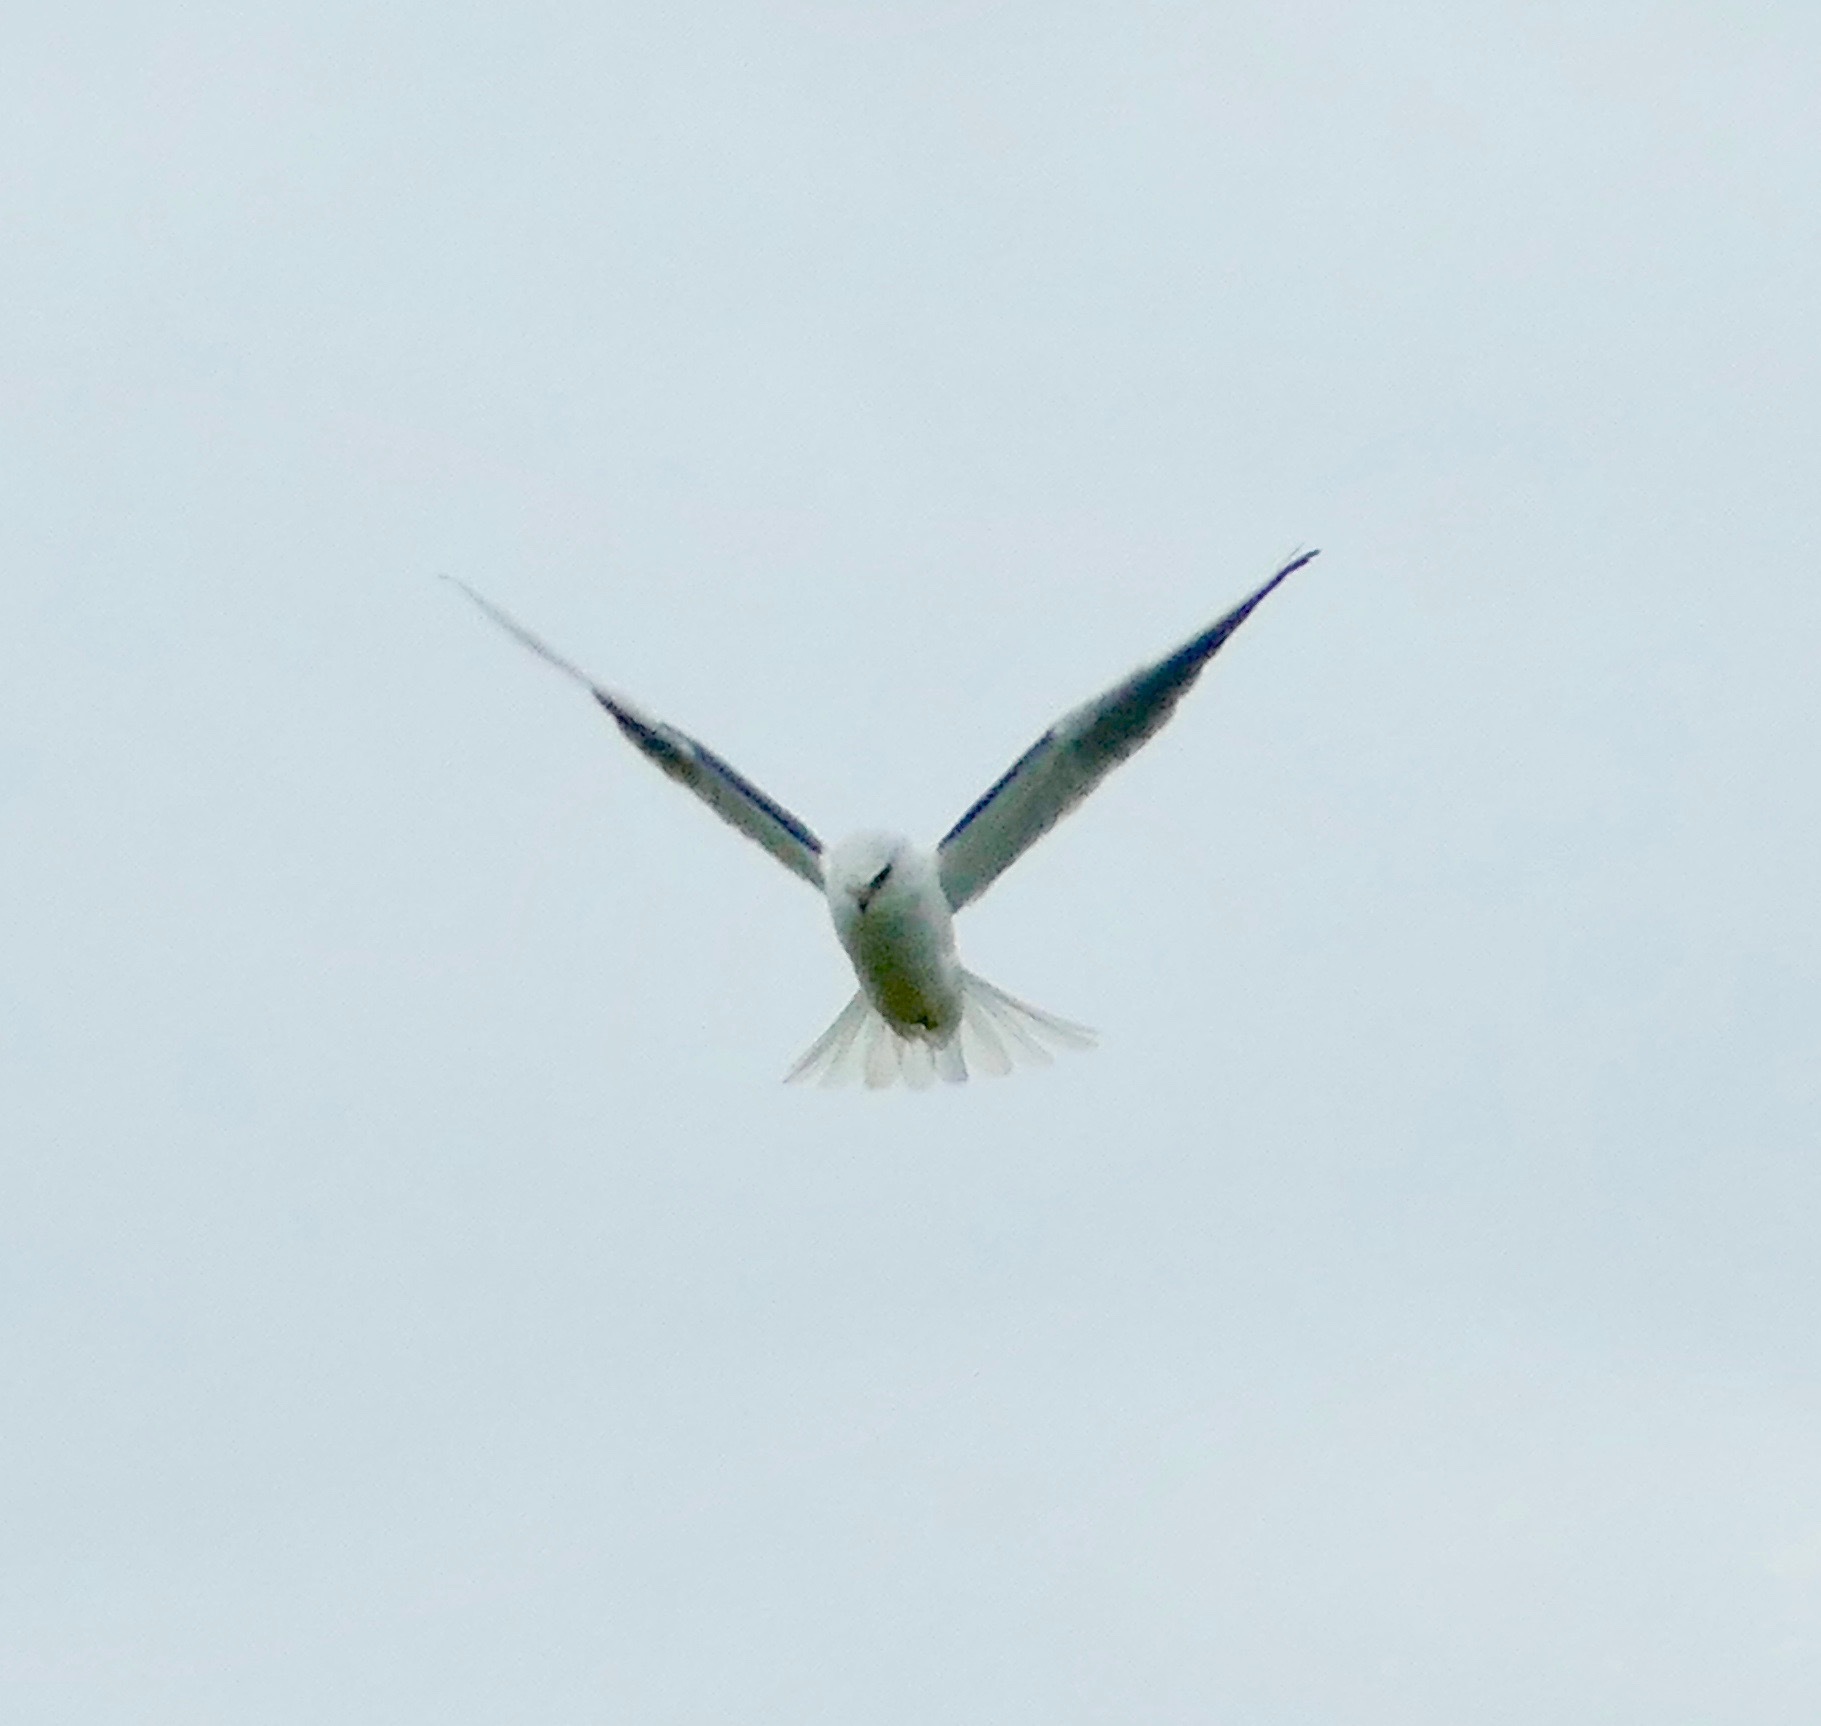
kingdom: Animalia
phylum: Chordata
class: Aves
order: Accipitriformes
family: Accipitridae
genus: Elanus
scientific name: Elanus leucurus
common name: White-tailed kite
